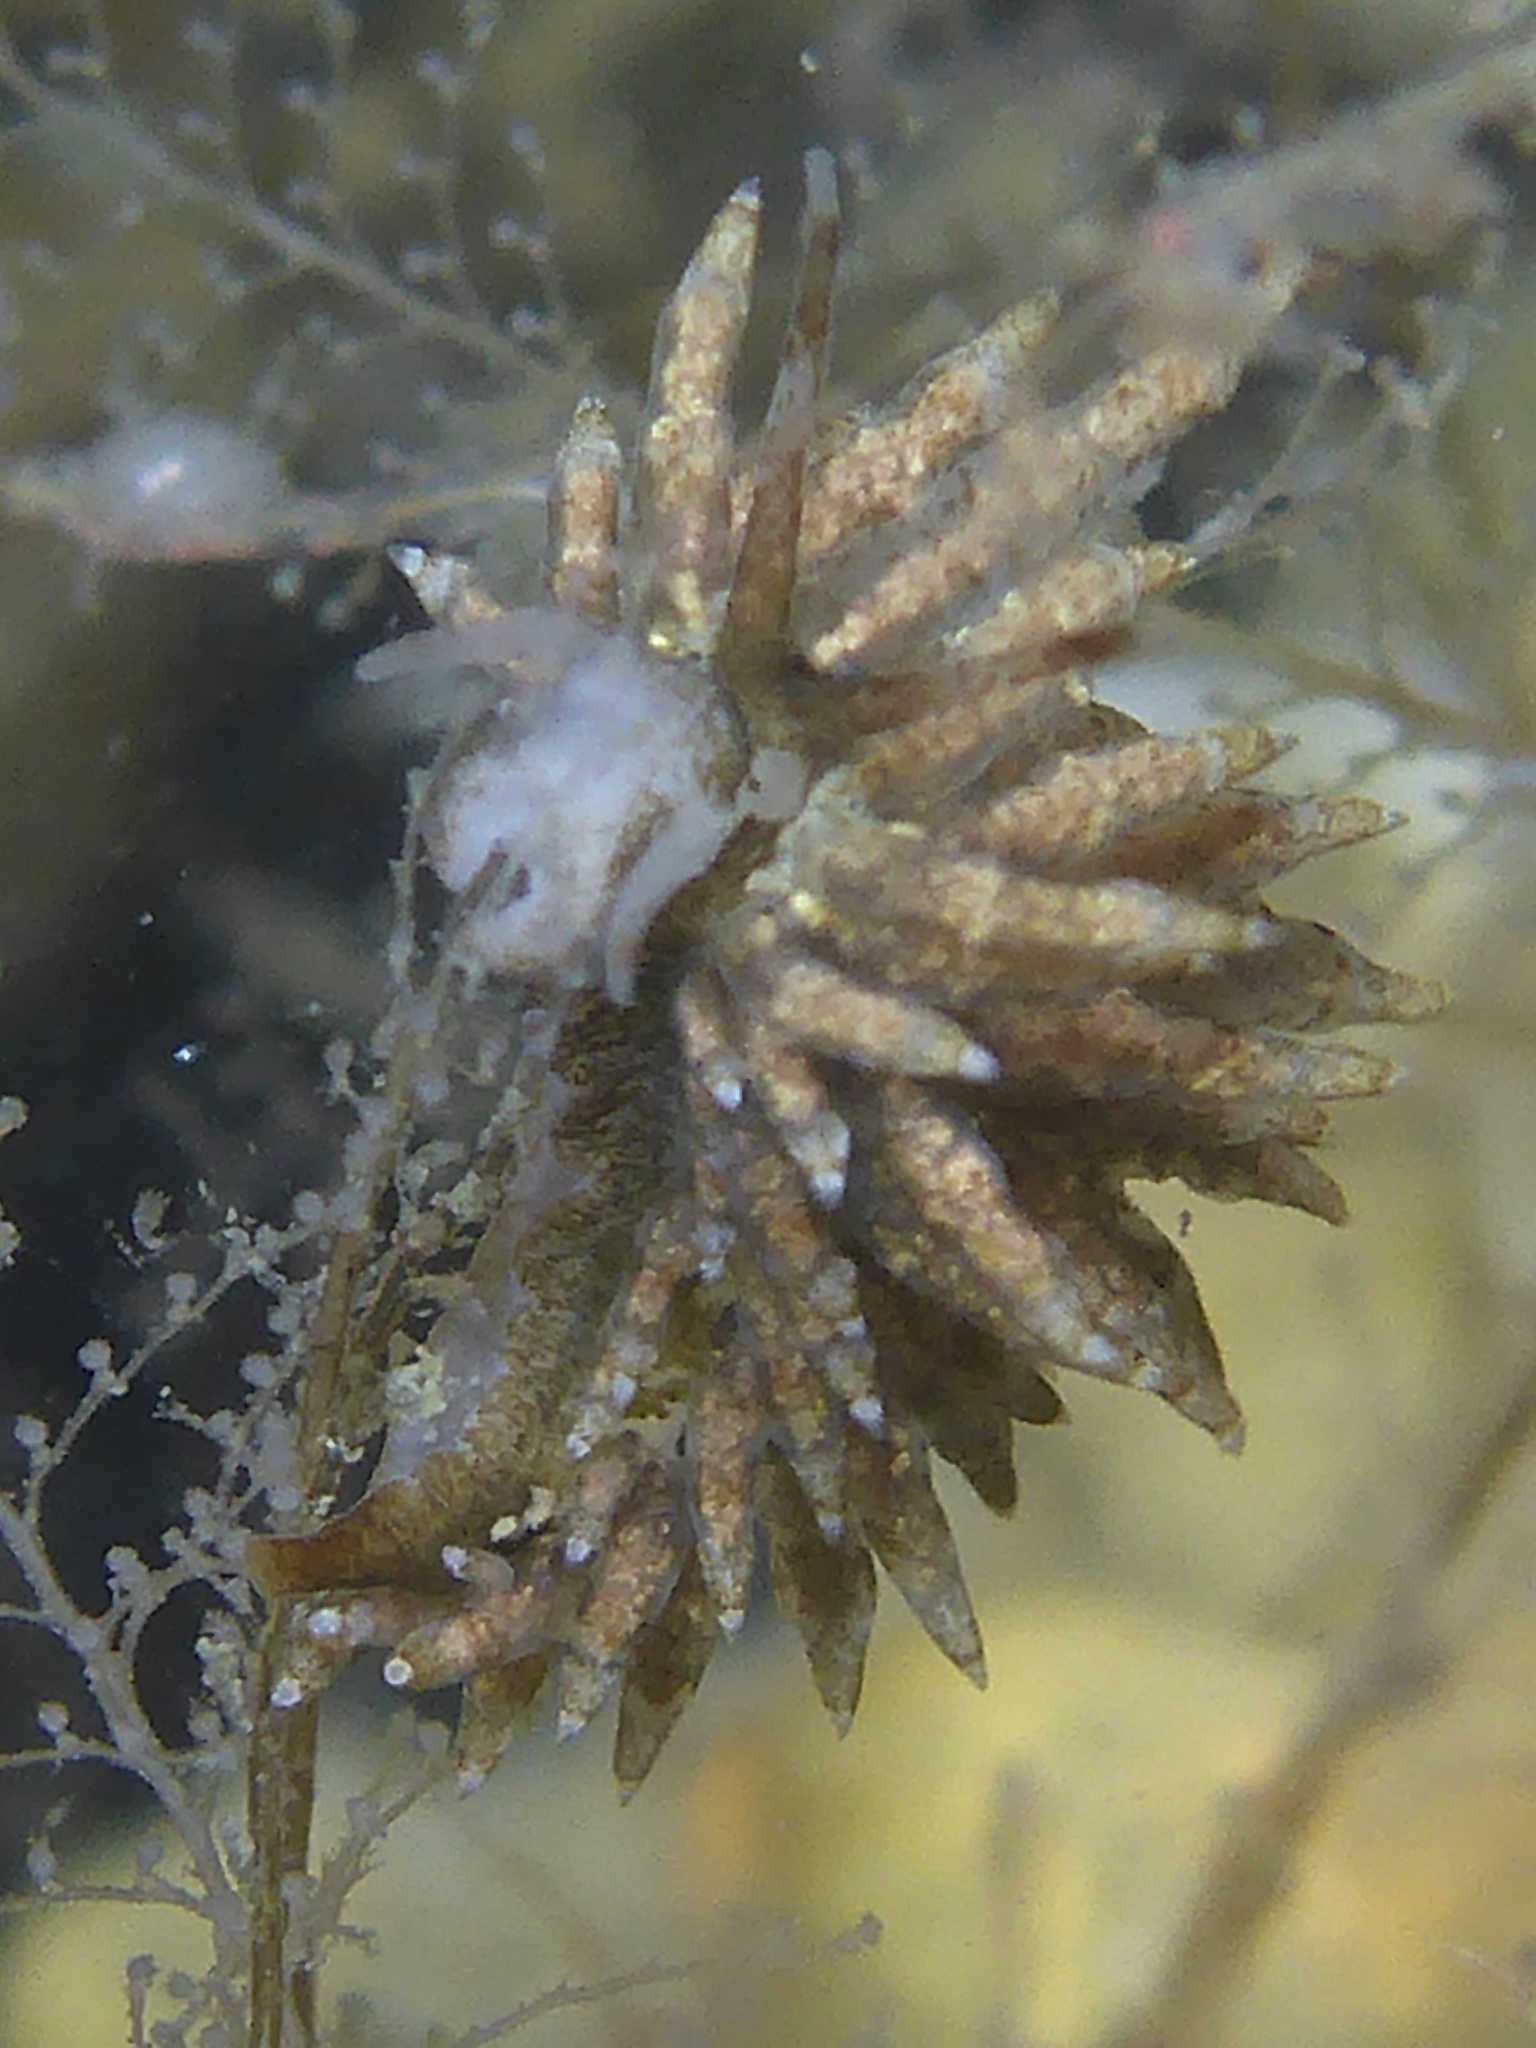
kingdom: Animalia
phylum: Mollusca
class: Gastropoda
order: Nudibranchia
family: Eubranchidae
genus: Eubranchus
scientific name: Eubranchus rustyus
